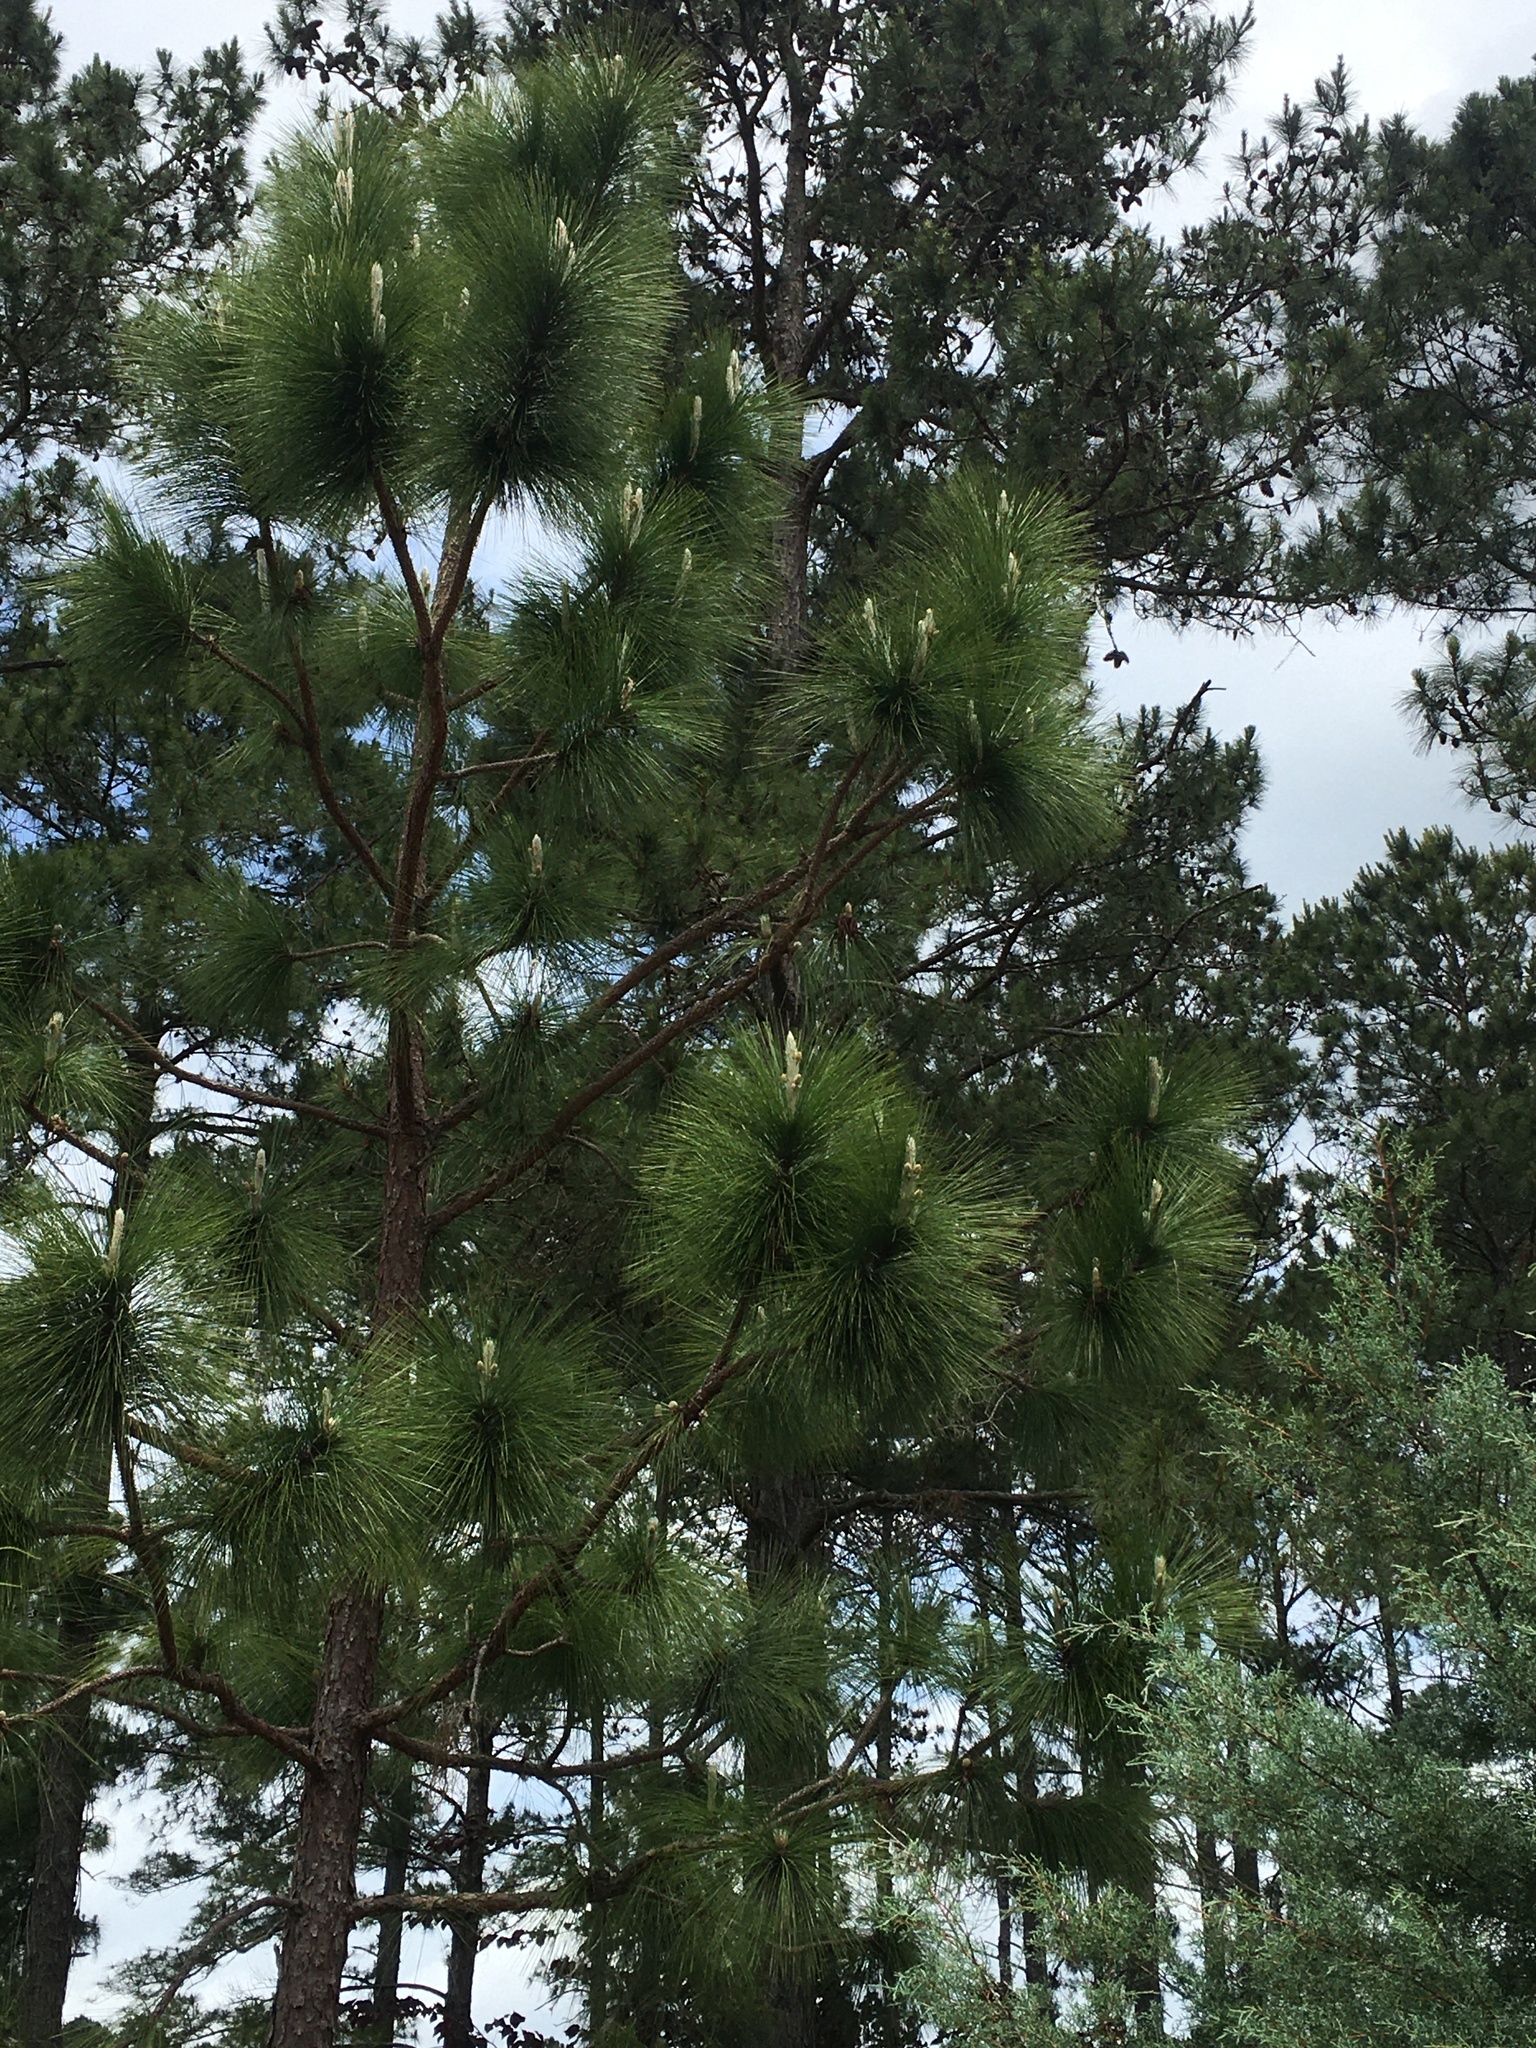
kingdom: Plantae
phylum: Tracheophyta
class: Pinopsida
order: Pinales
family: Pinaceae
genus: Pinus
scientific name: Pinus palustris
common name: Longleaf pine
